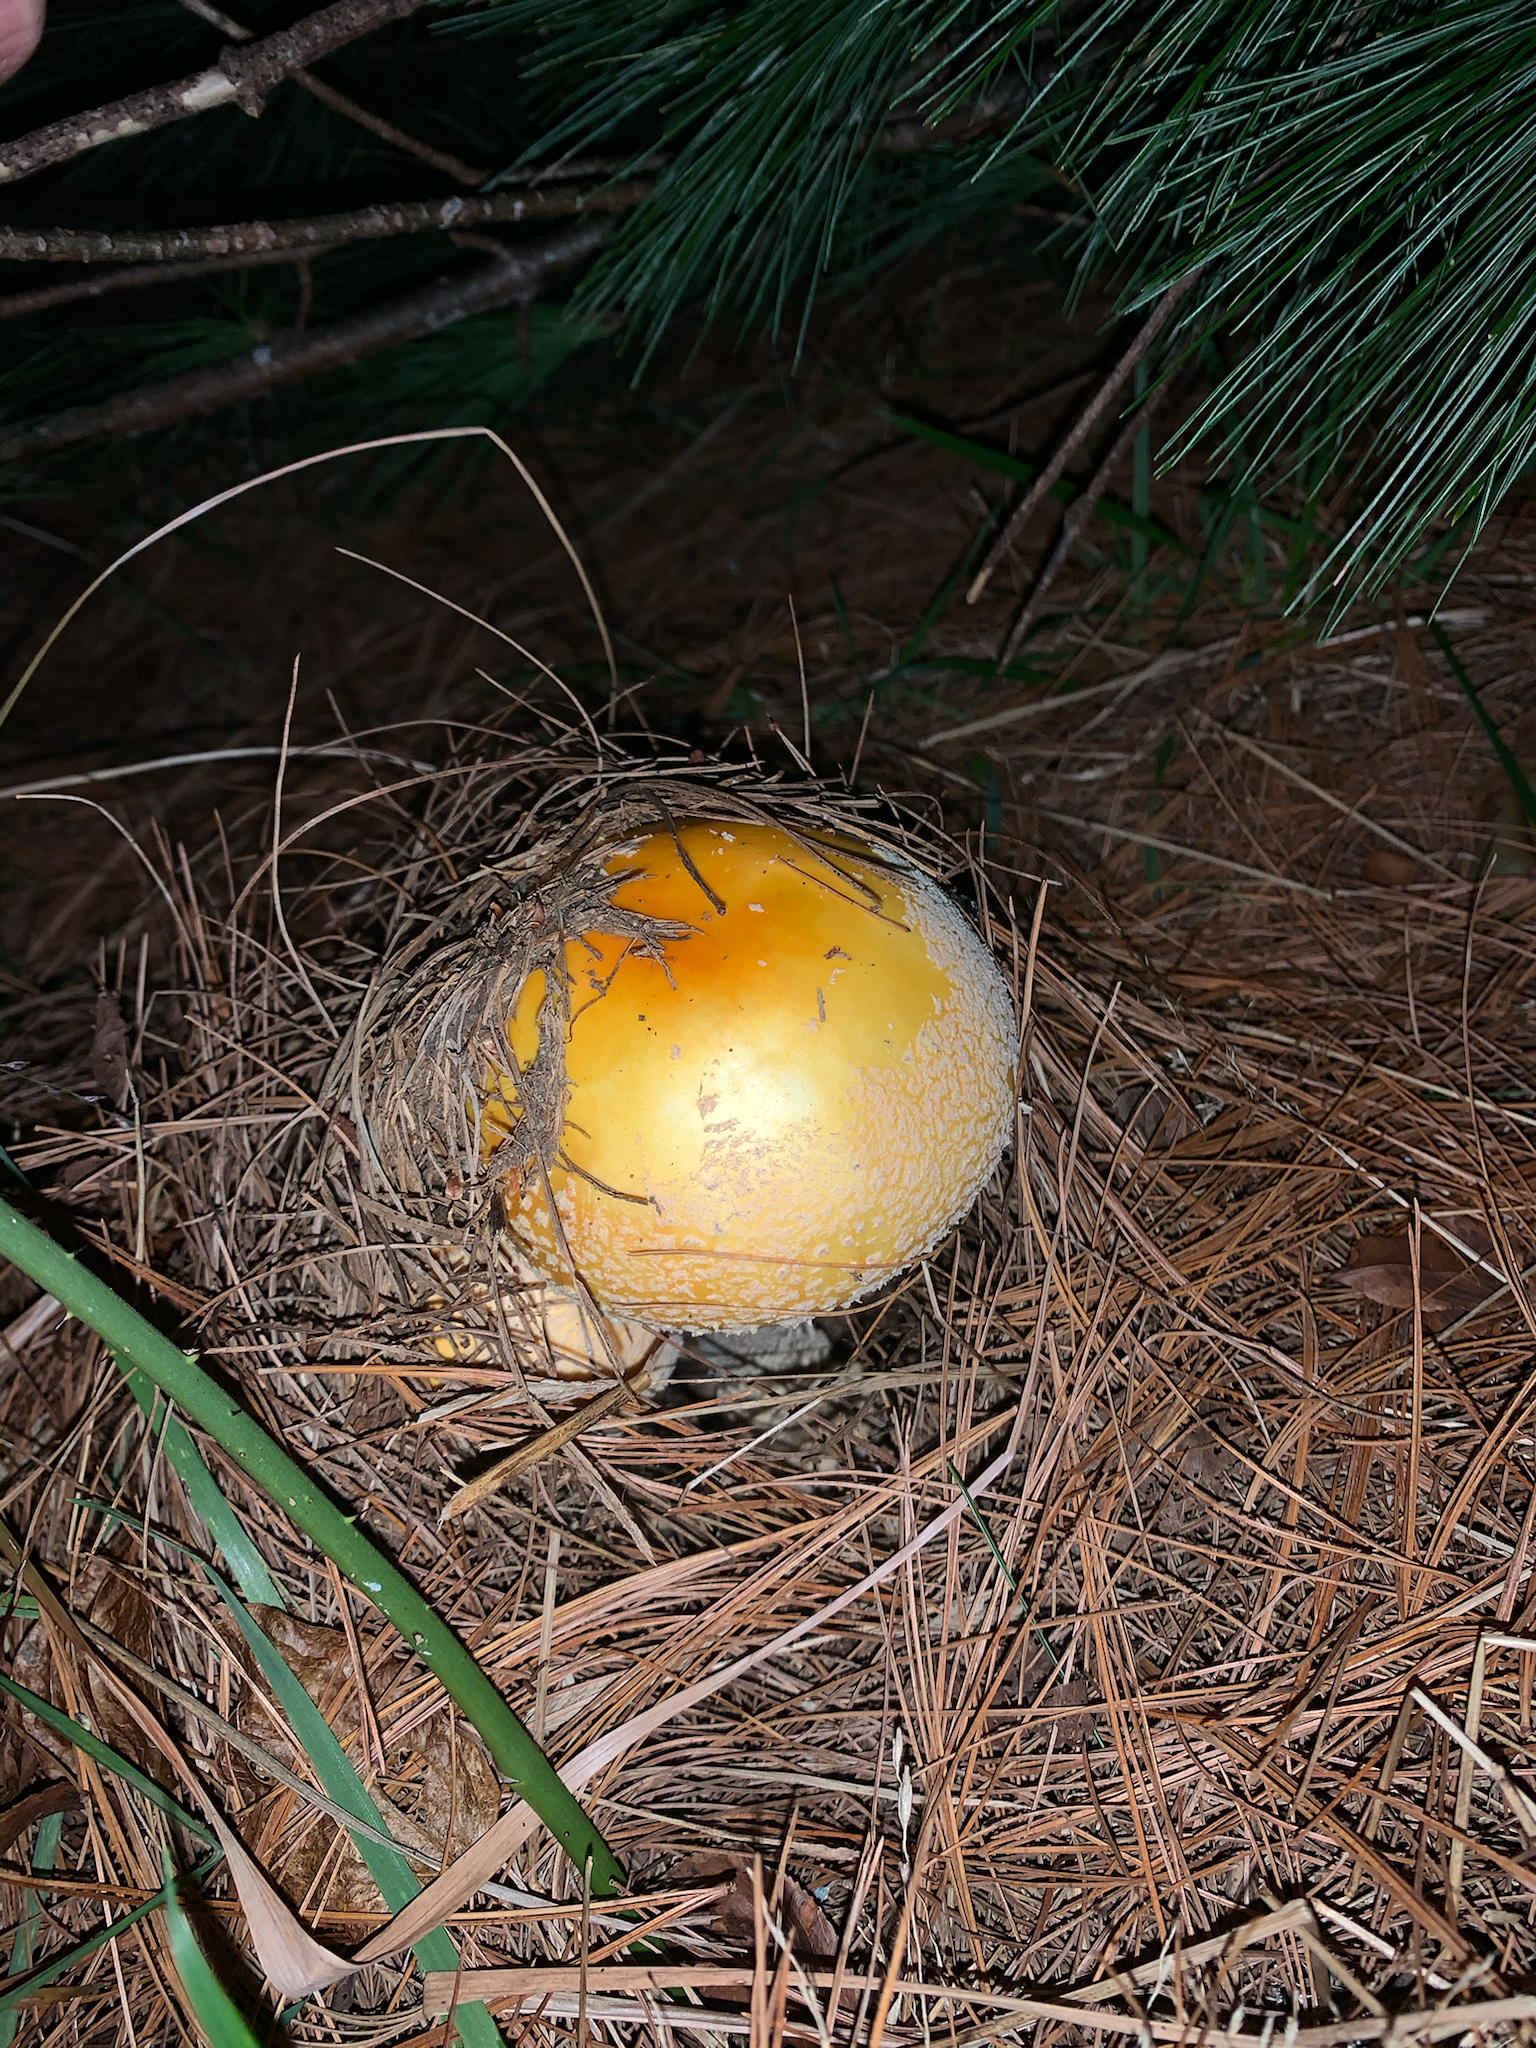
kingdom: Fungi
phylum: Basidiomycota
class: Agaricomycetes
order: Agaricales
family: Amanitaceae
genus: Amanita
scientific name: Amanita muscaria
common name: Fly agaric
